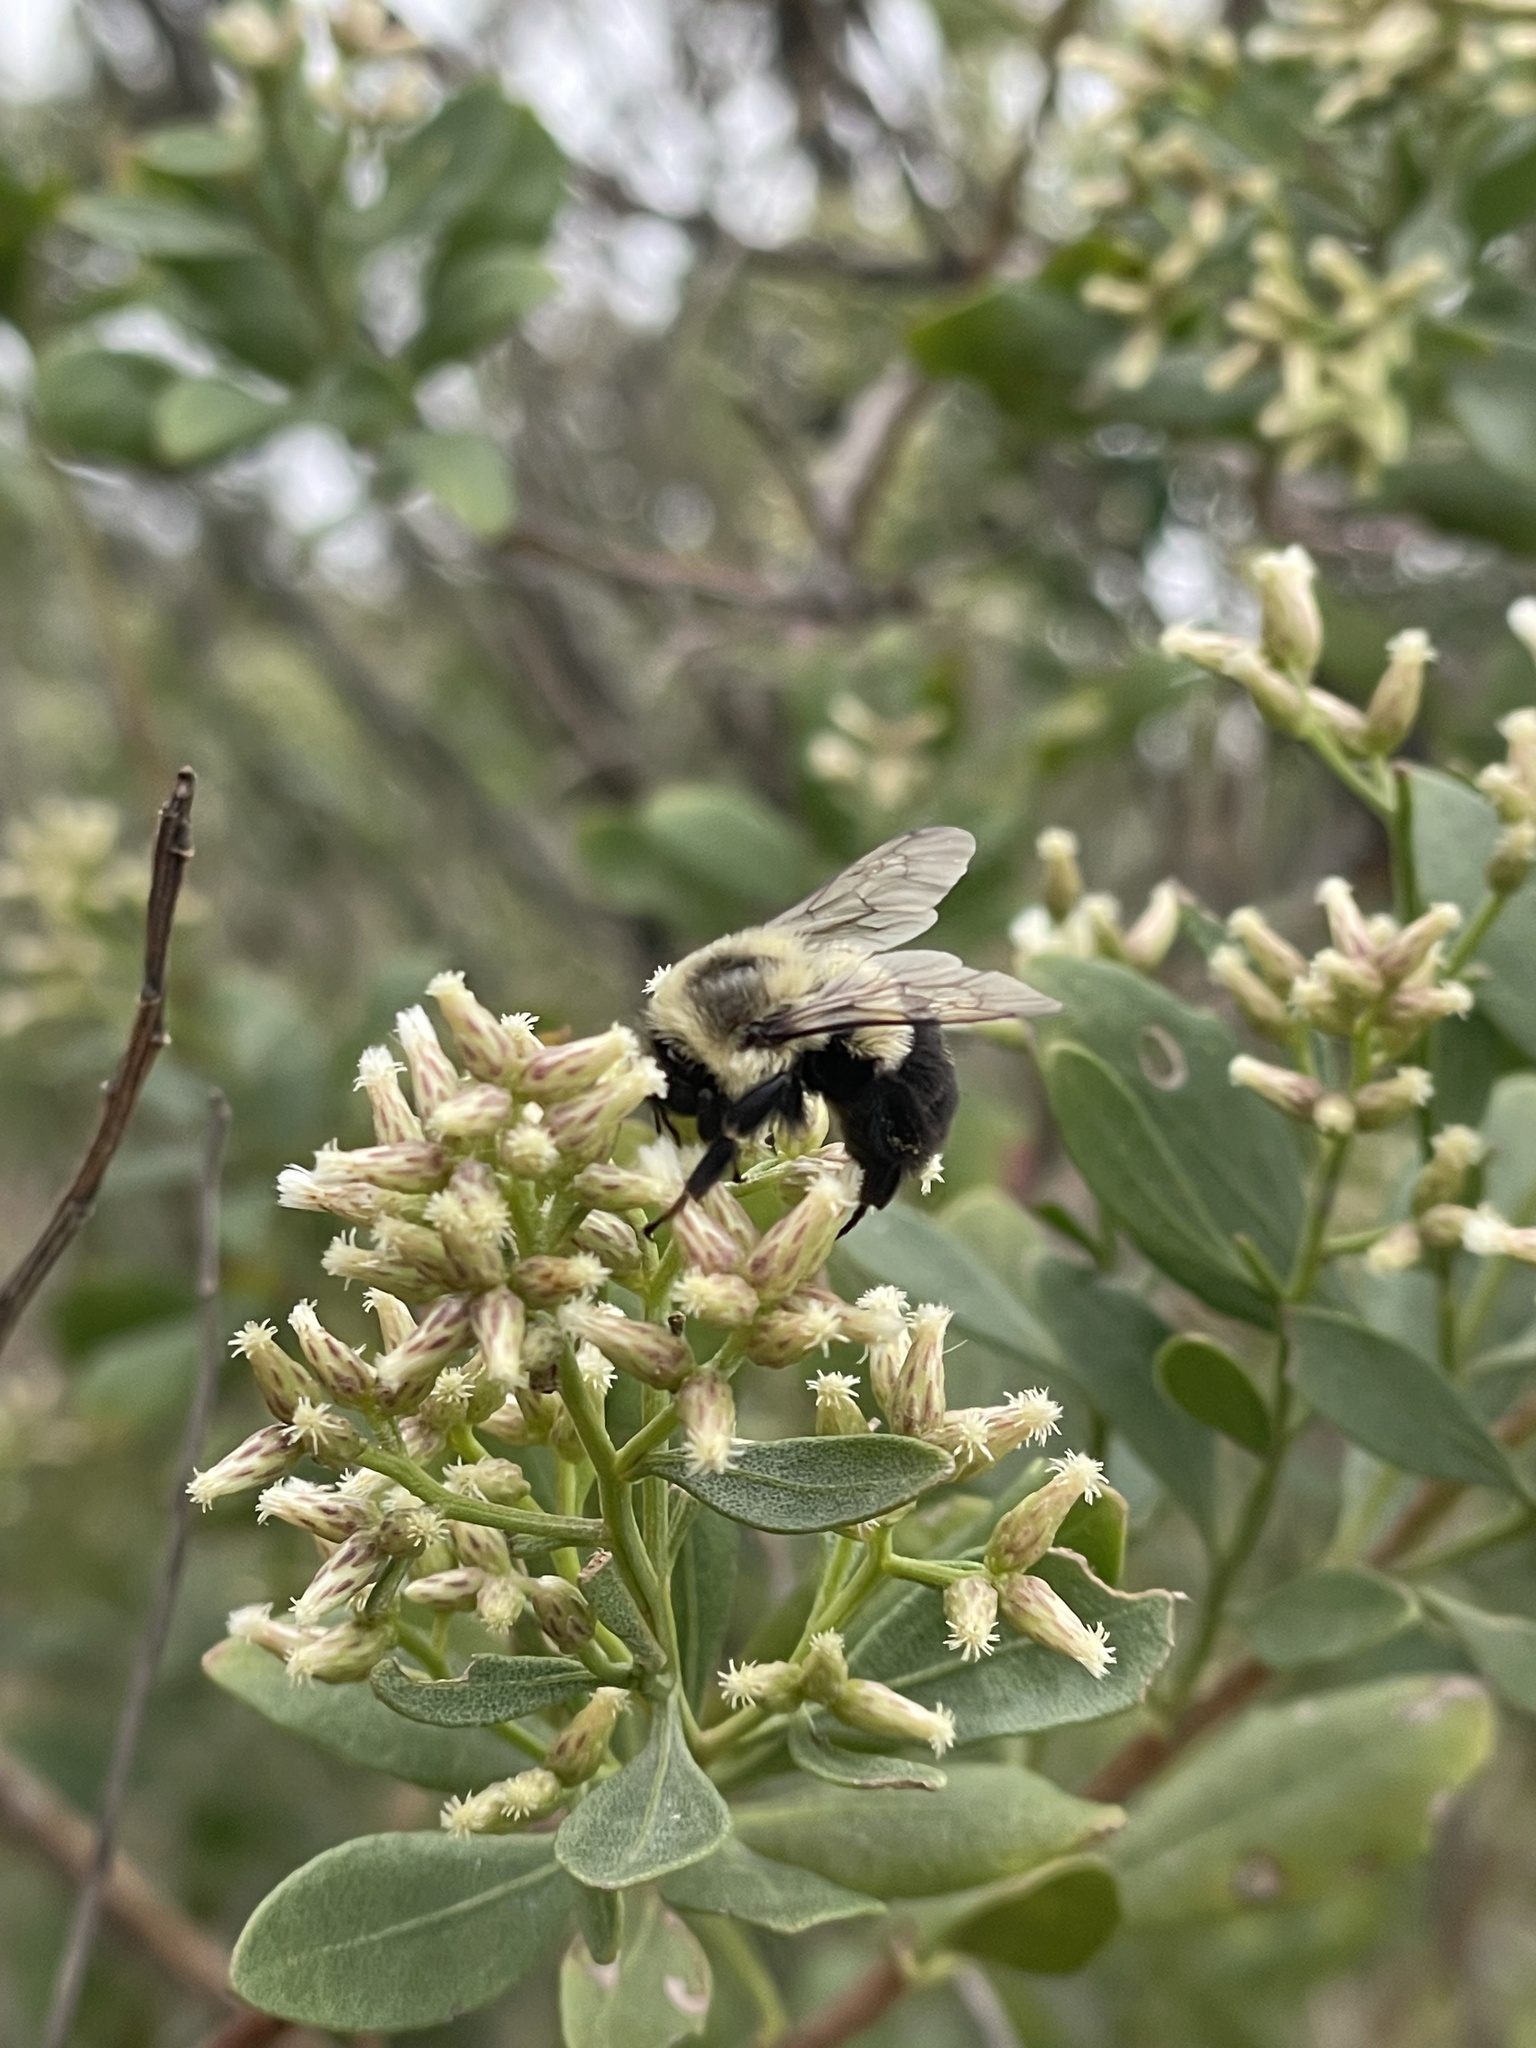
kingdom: Animalia
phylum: Arthropoda
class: Insecta
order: Hymenoptera
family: Apidae
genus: Bombus
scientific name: Bombus impatiens
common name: Common eastern bumble bee
